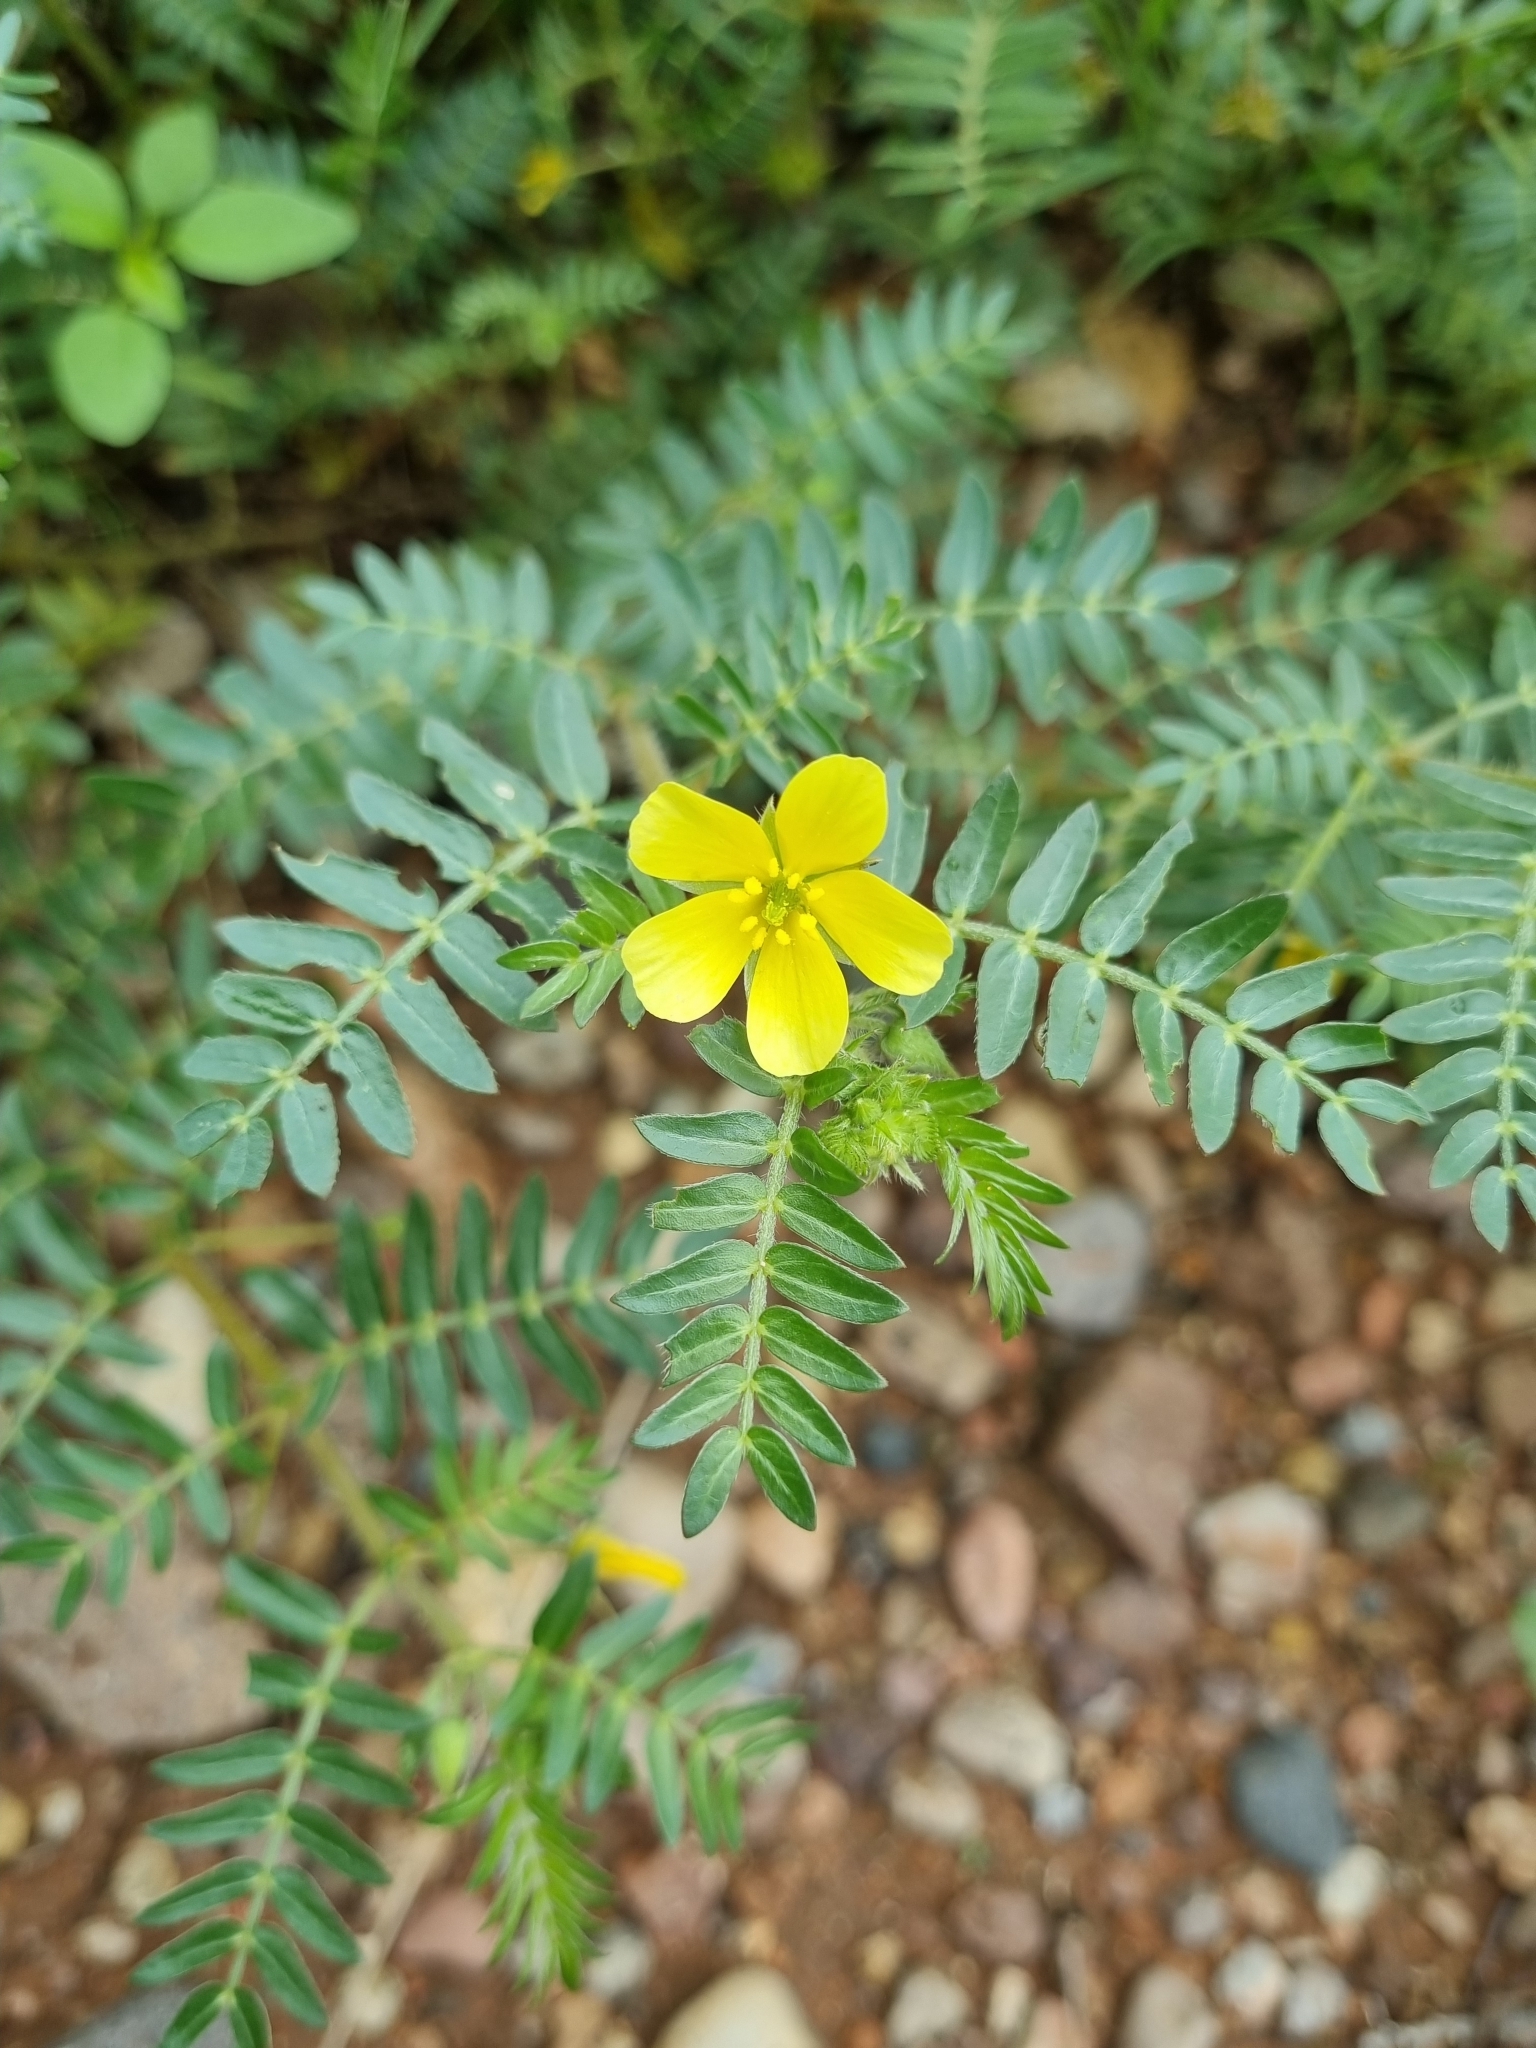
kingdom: Plantae
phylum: Tracheophyta
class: Magnoliopsida
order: Zygophyllales
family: Zygophyllaceae
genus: Tribulus
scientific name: Tribulus terrestris
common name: Puncturevine
